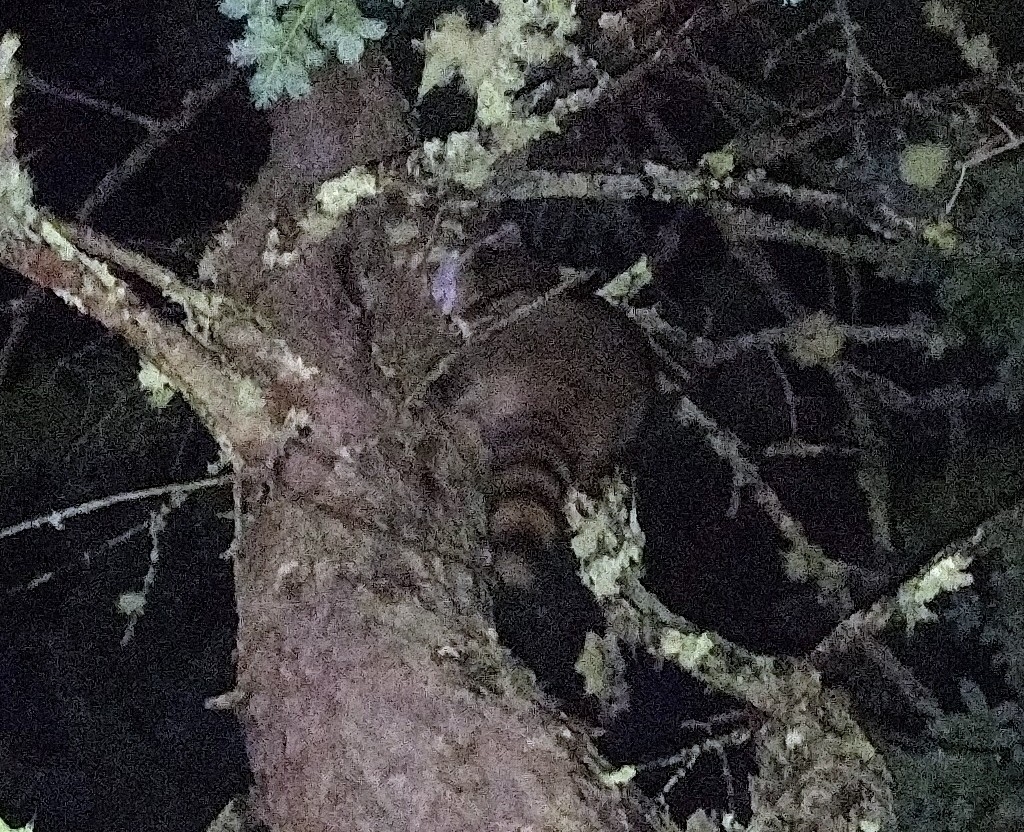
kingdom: Animalia
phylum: Chordata
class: Mammalia
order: Carnivora
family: Procyonidae
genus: Procyon
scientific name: Procyon lotor
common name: Raccoon
